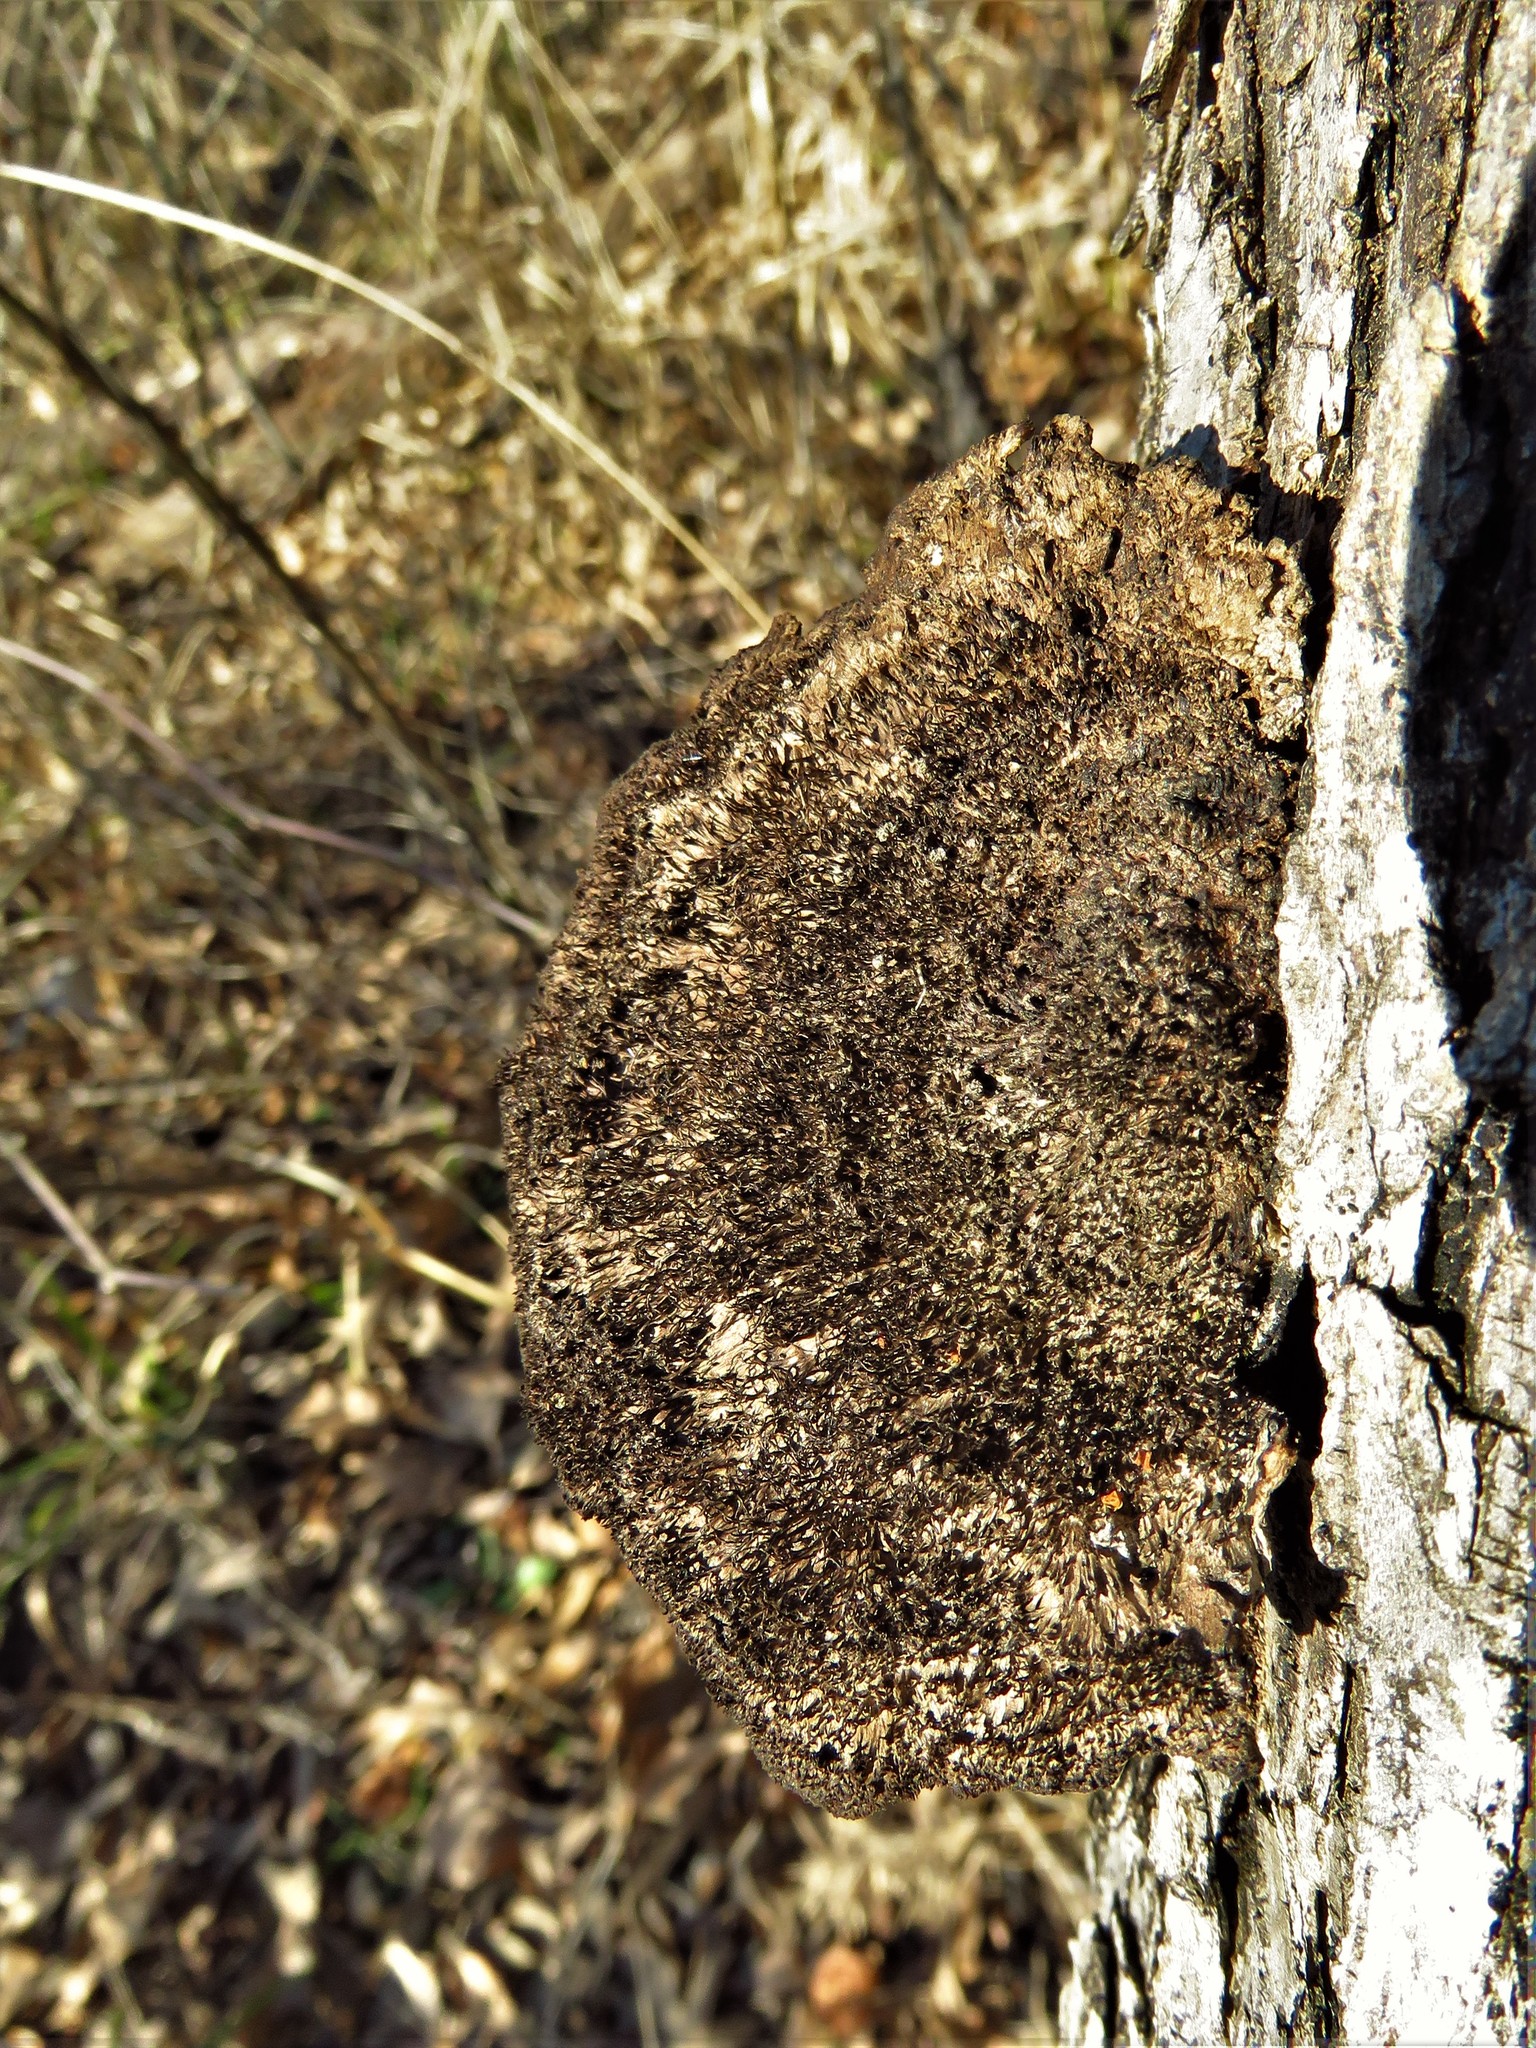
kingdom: Fungi
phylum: Basidiomycota
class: Agaricomycetes
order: Polyporales
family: Cerrenaceae
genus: Cerrena
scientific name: Cerrena hydnoides
